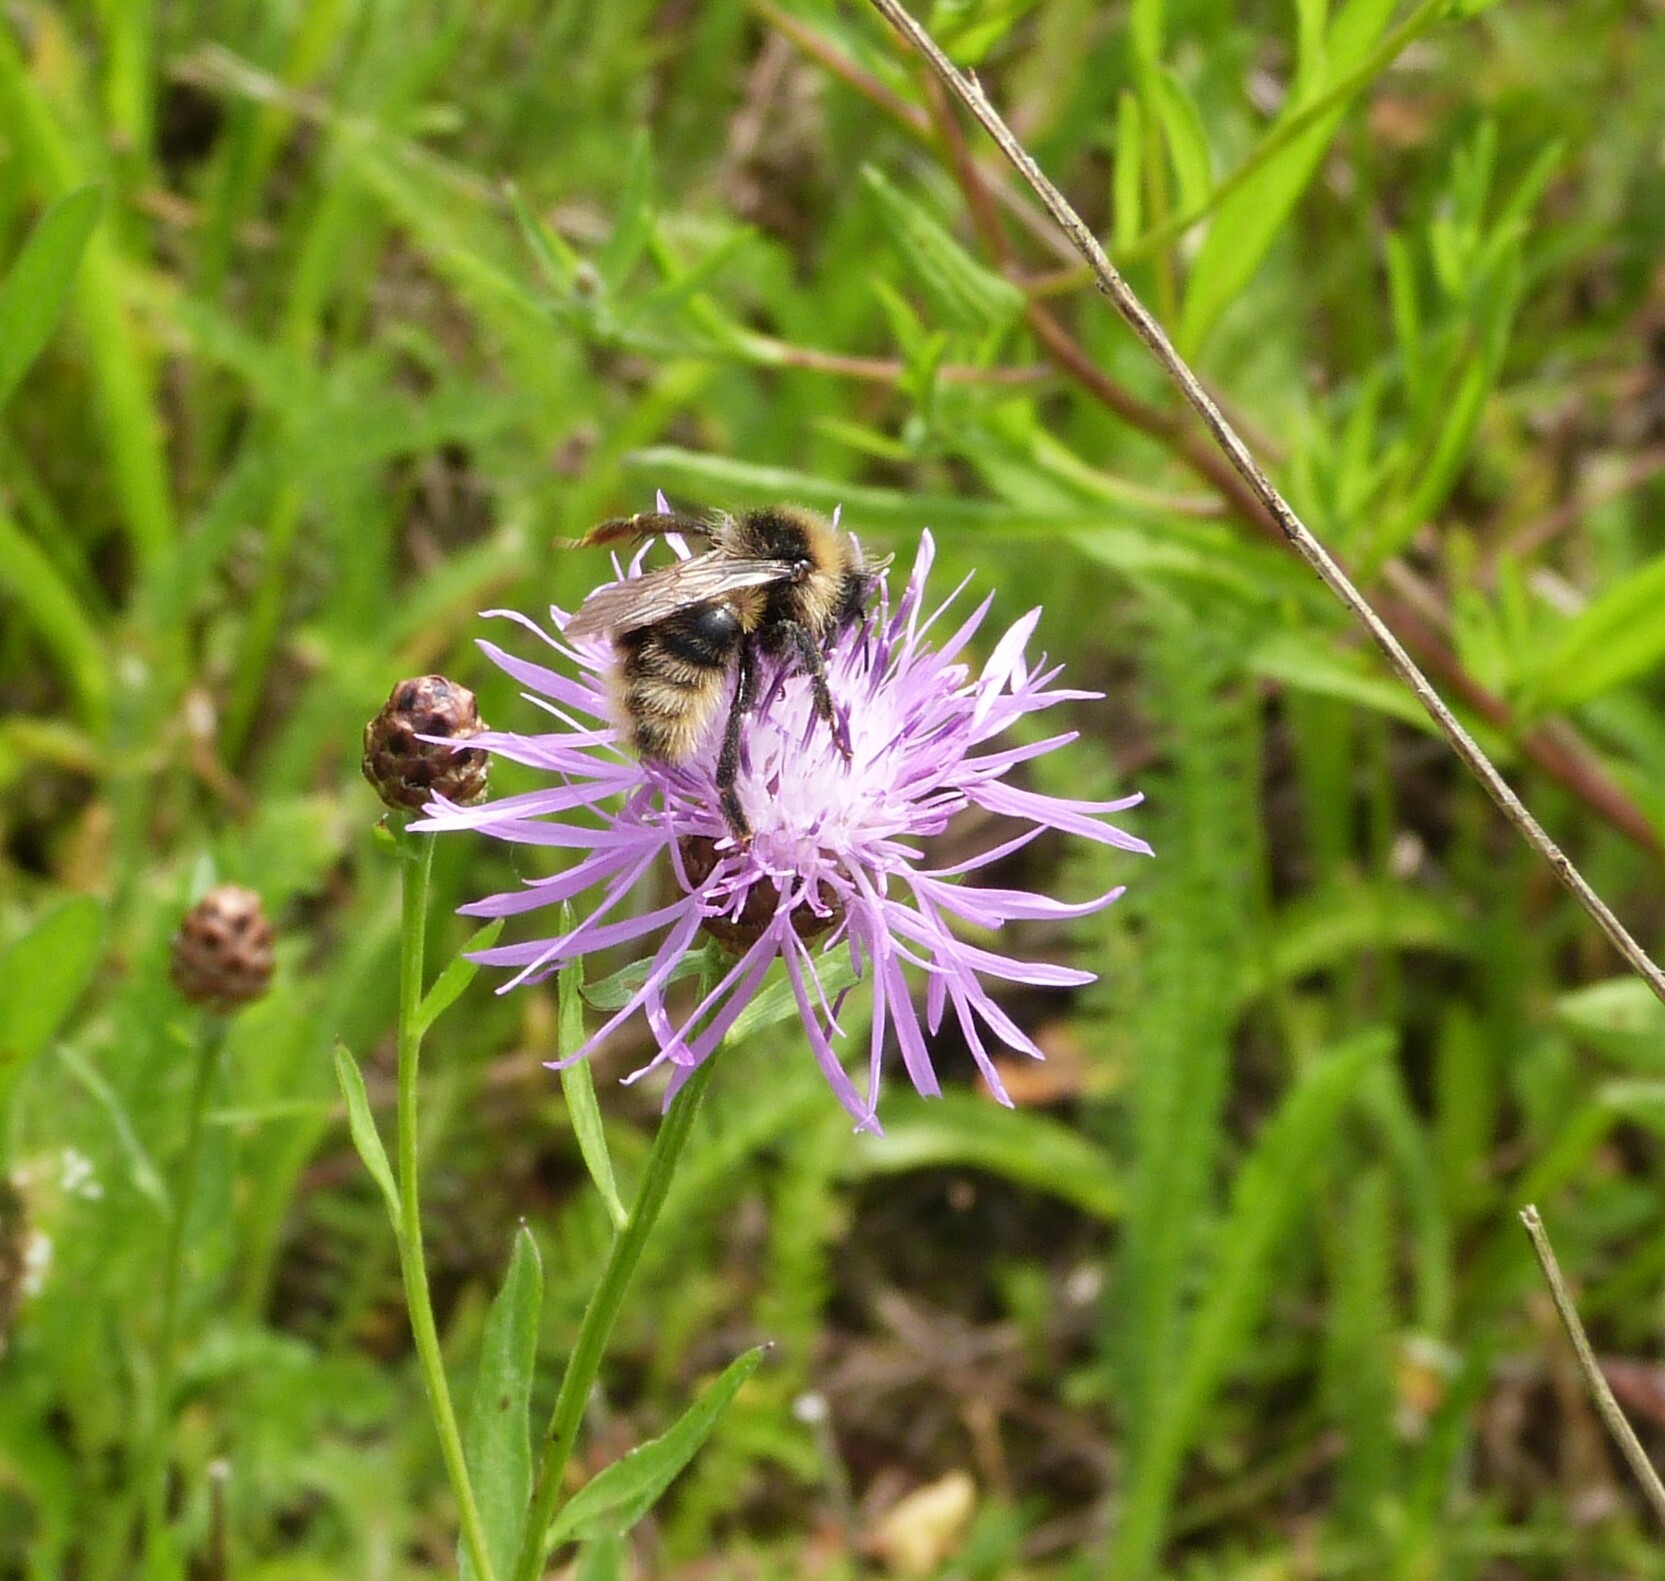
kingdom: Animalia
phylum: Arthropoda
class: Insecta
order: Hymenoptera
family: Apidae
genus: Bombus
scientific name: Bombus campestris
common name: Field cuckoo-bee
